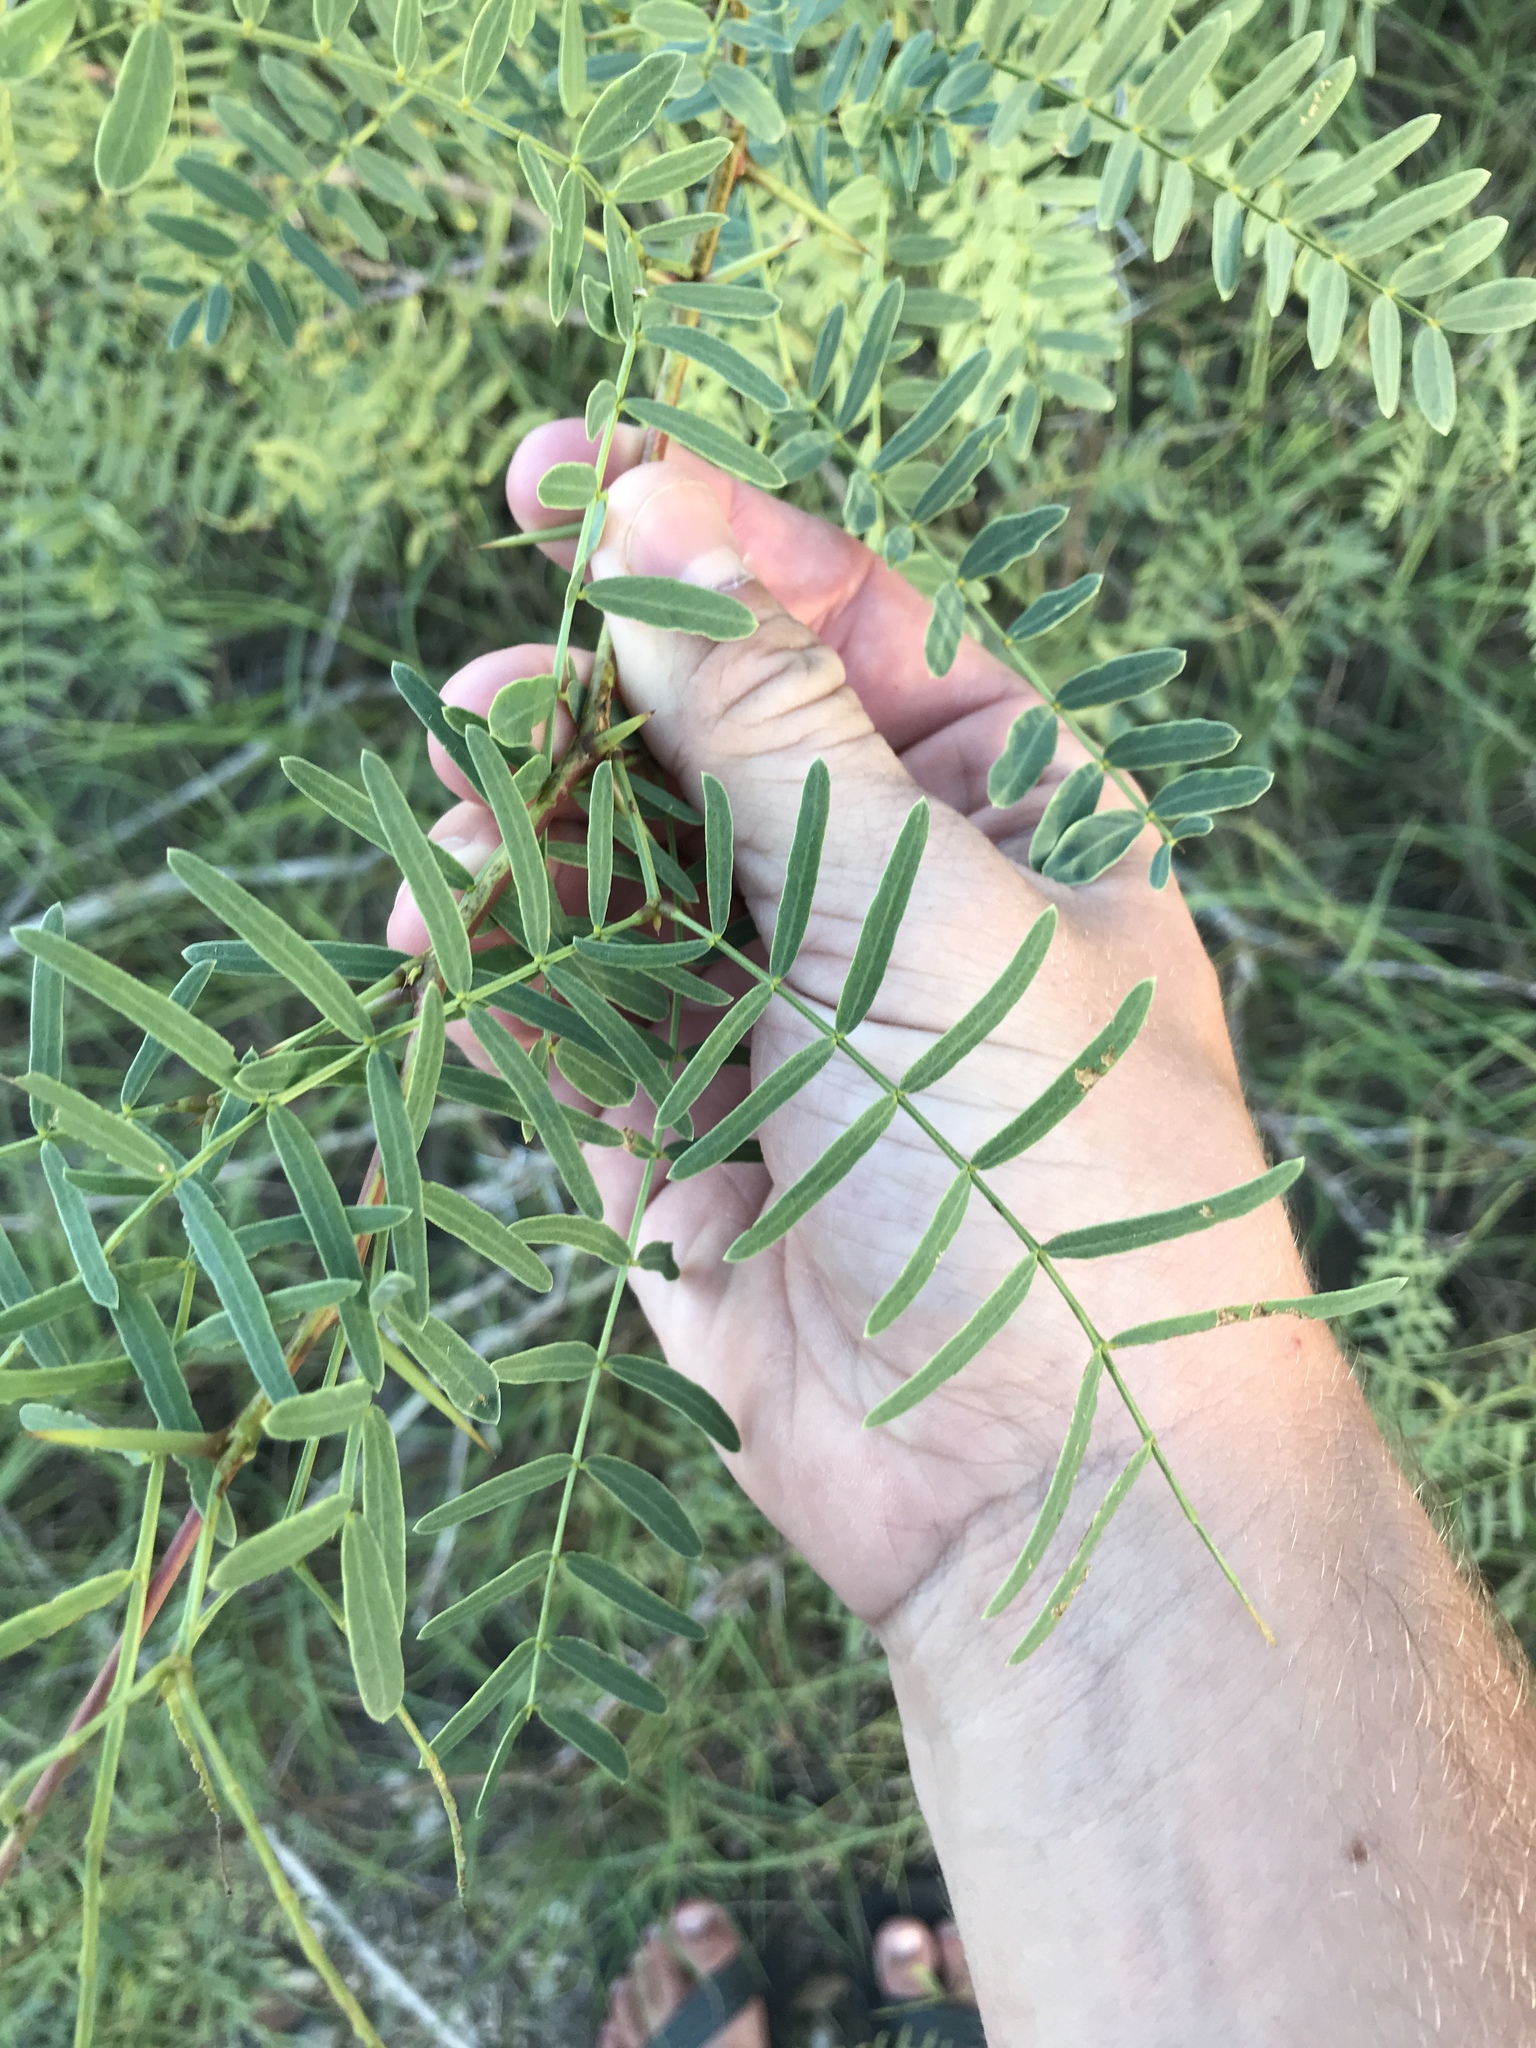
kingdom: Plantae
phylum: Tracheophyta
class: Magnoliopsida
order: Fabales
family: Fabaceae
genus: Prosopis
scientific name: Prosopis glandulosa
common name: Honey mesquite
